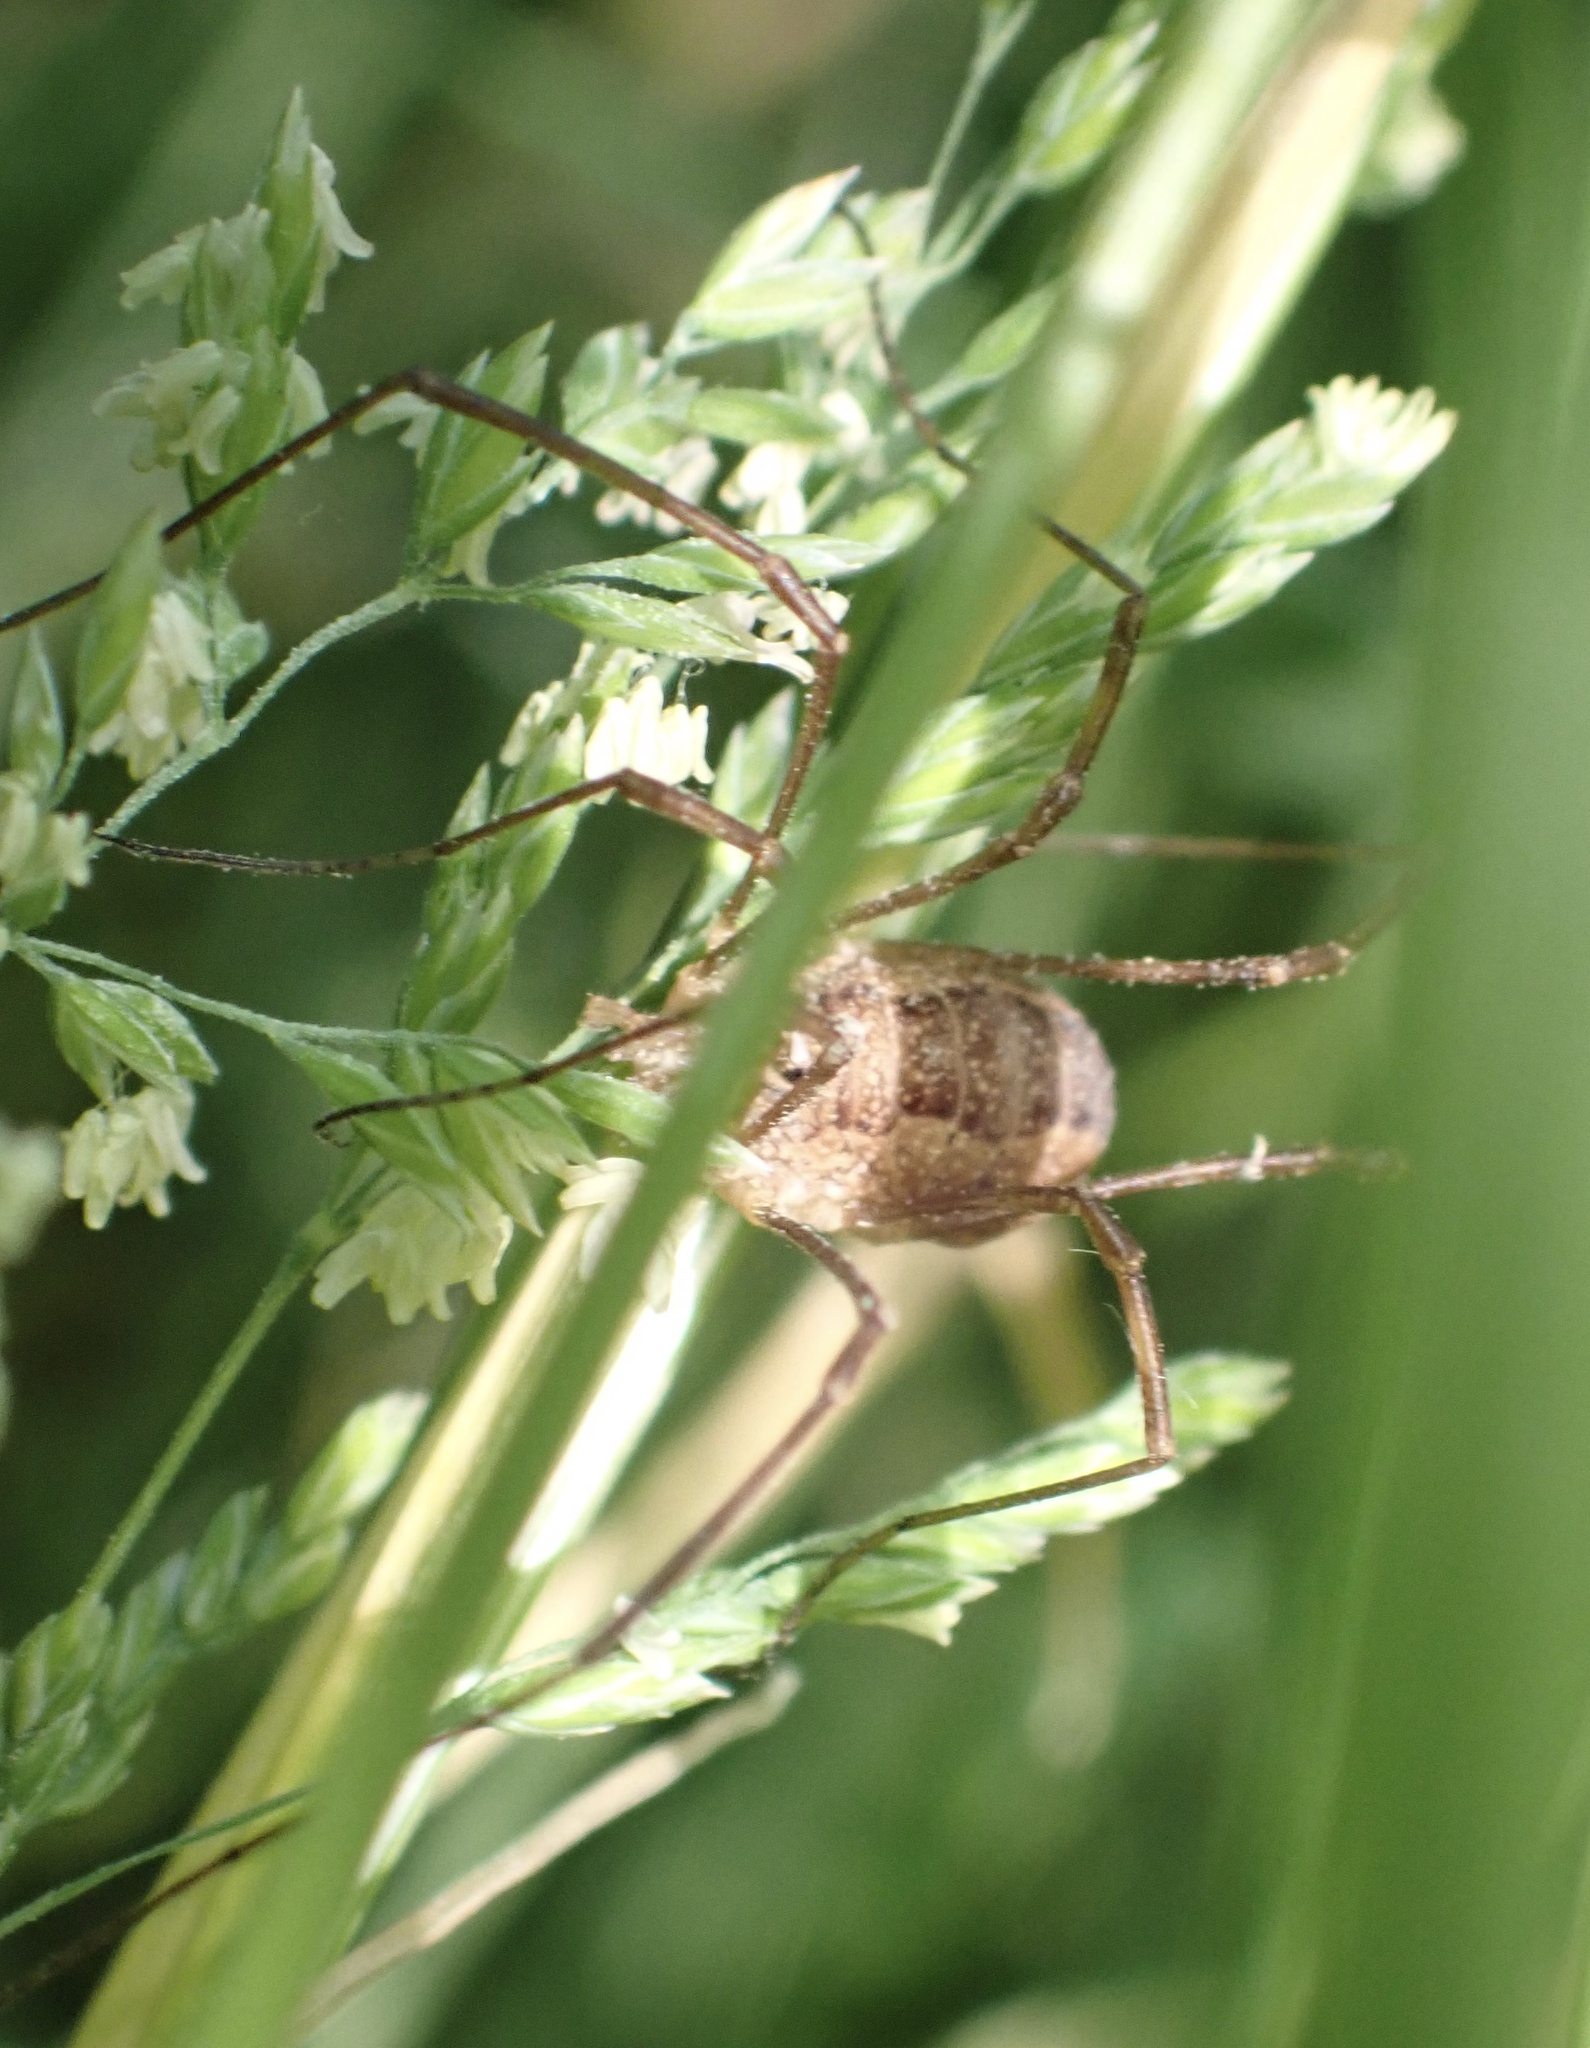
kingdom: Animalia
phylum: Arthropoda
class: Arachnida
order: Opiliones
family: Phalangiidae
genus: Rilaena
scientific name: Rilaena triangularis
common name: Spring harvestman
